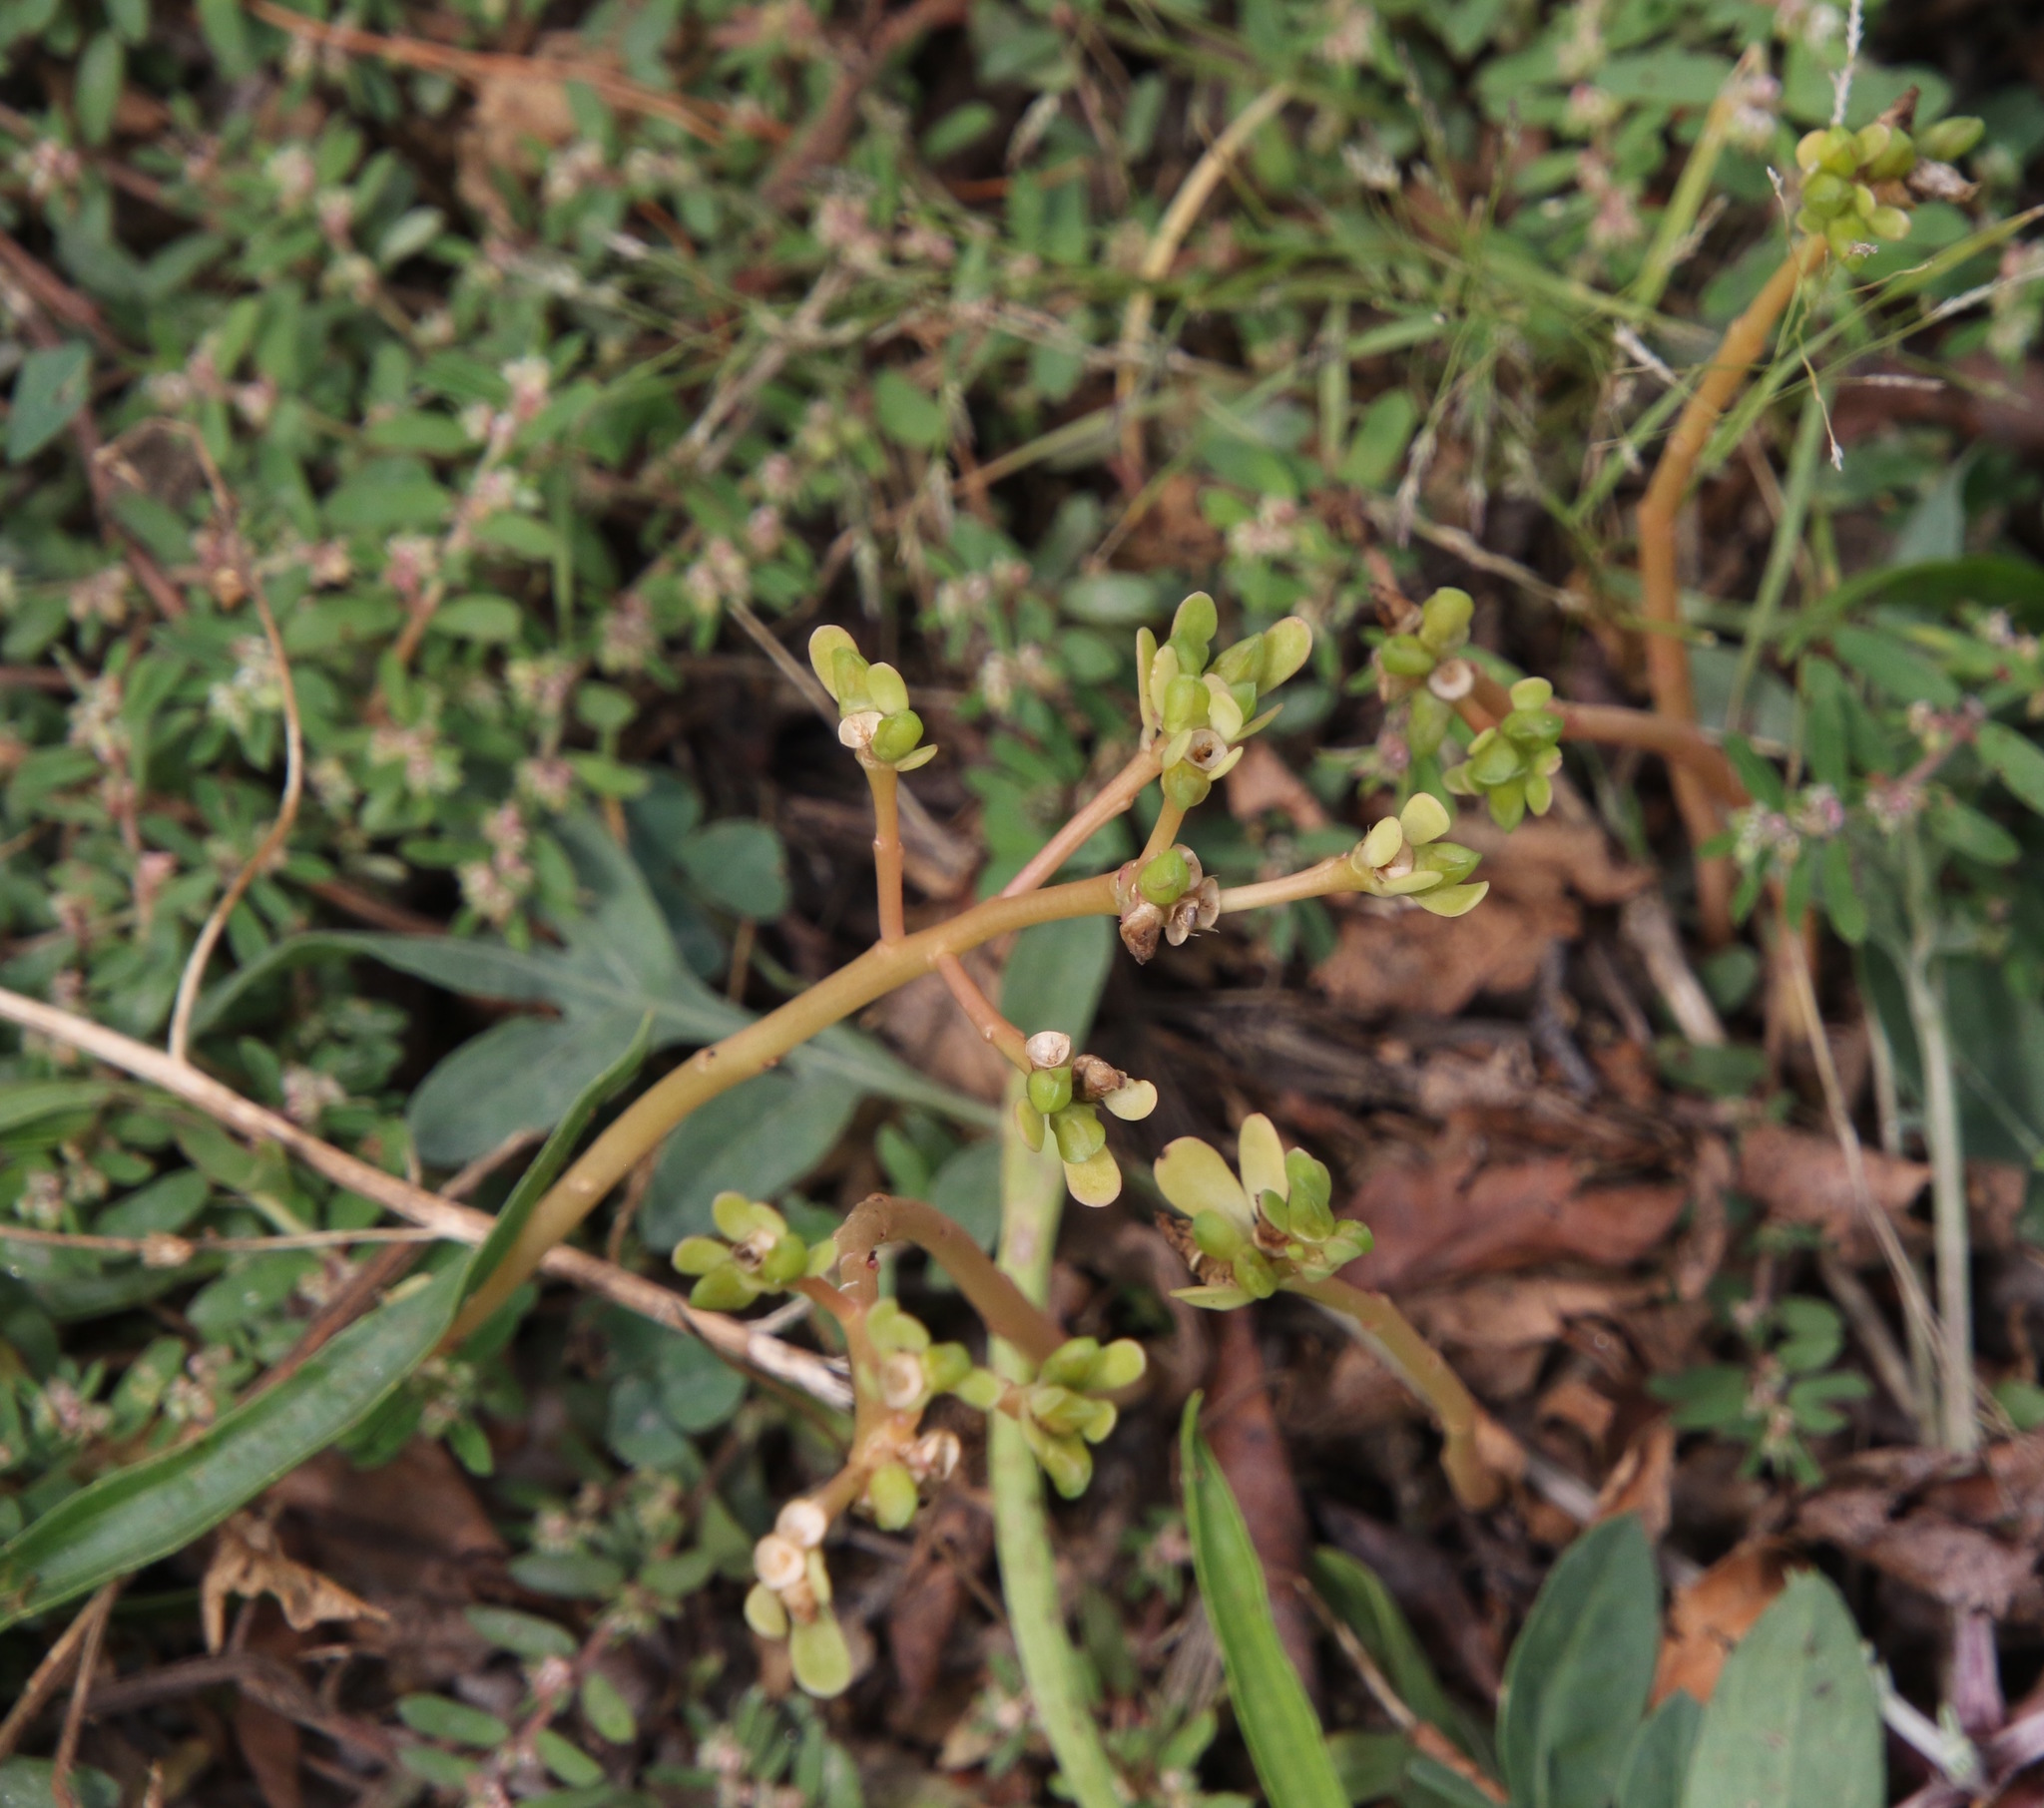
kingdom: Plantae
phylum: Tracheophyta
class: Magnoliopsida
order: Caryophyllales
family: Portulacaceae
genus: Portulaca
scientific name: Portulaca oleracea
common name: Common purslane
